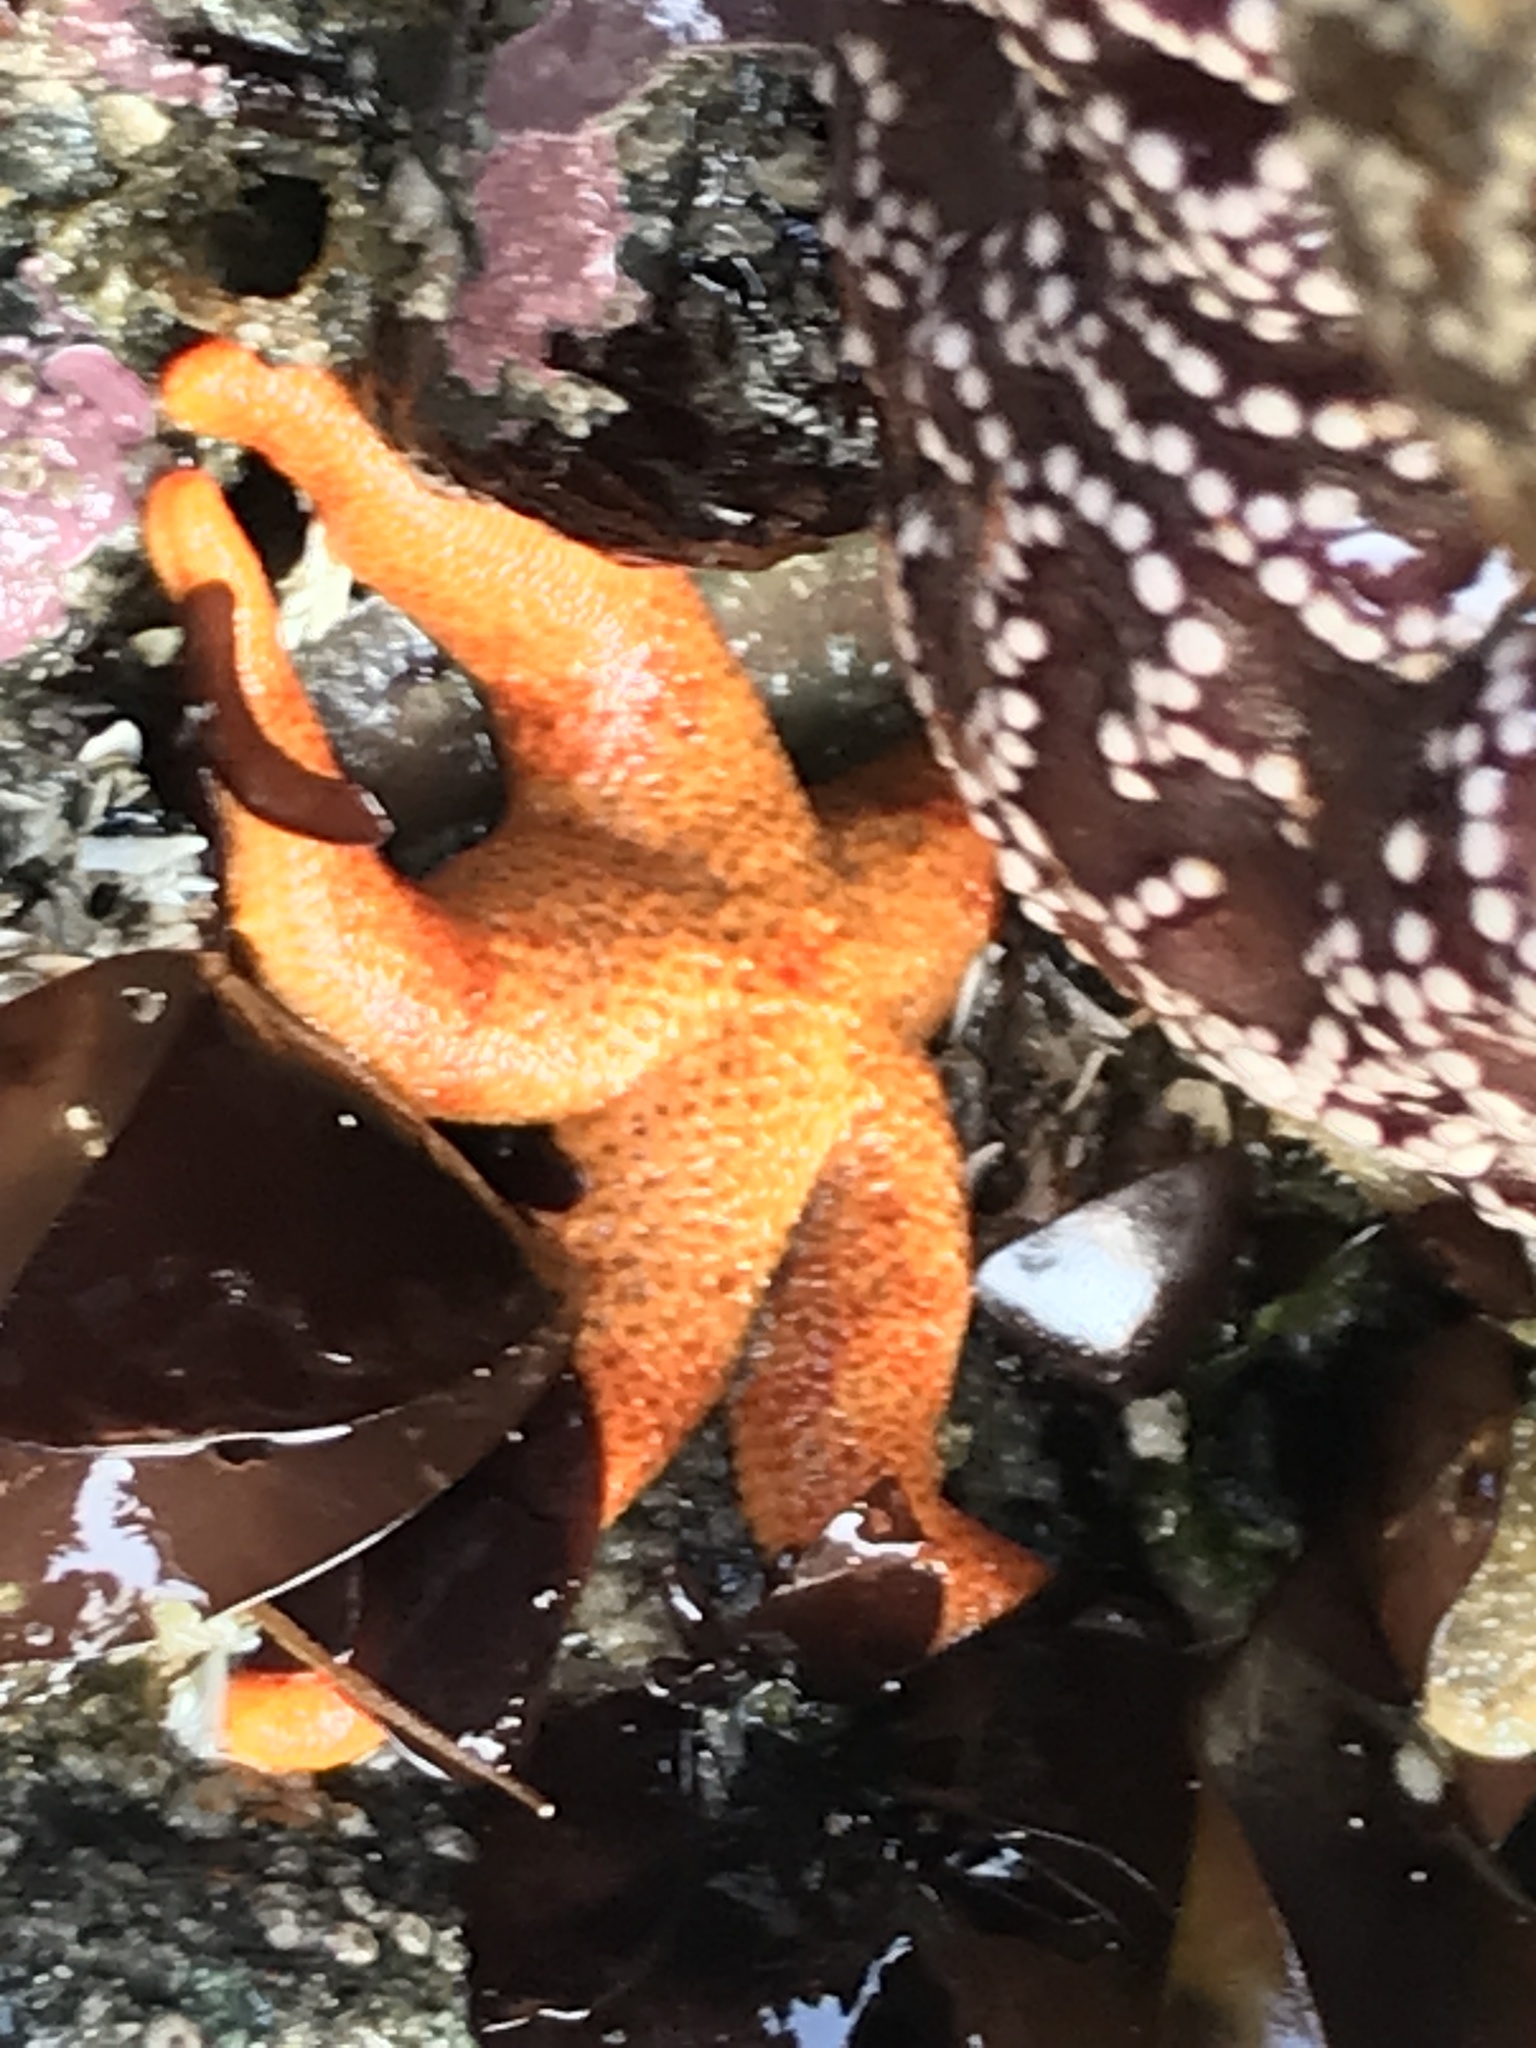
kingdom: Animalia
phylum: Echinodermata
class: Asteroidea
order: Spinulosida
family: Echinasteridae
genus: Henricia
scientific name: Henricia leviuscula
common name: Pacific blood star
